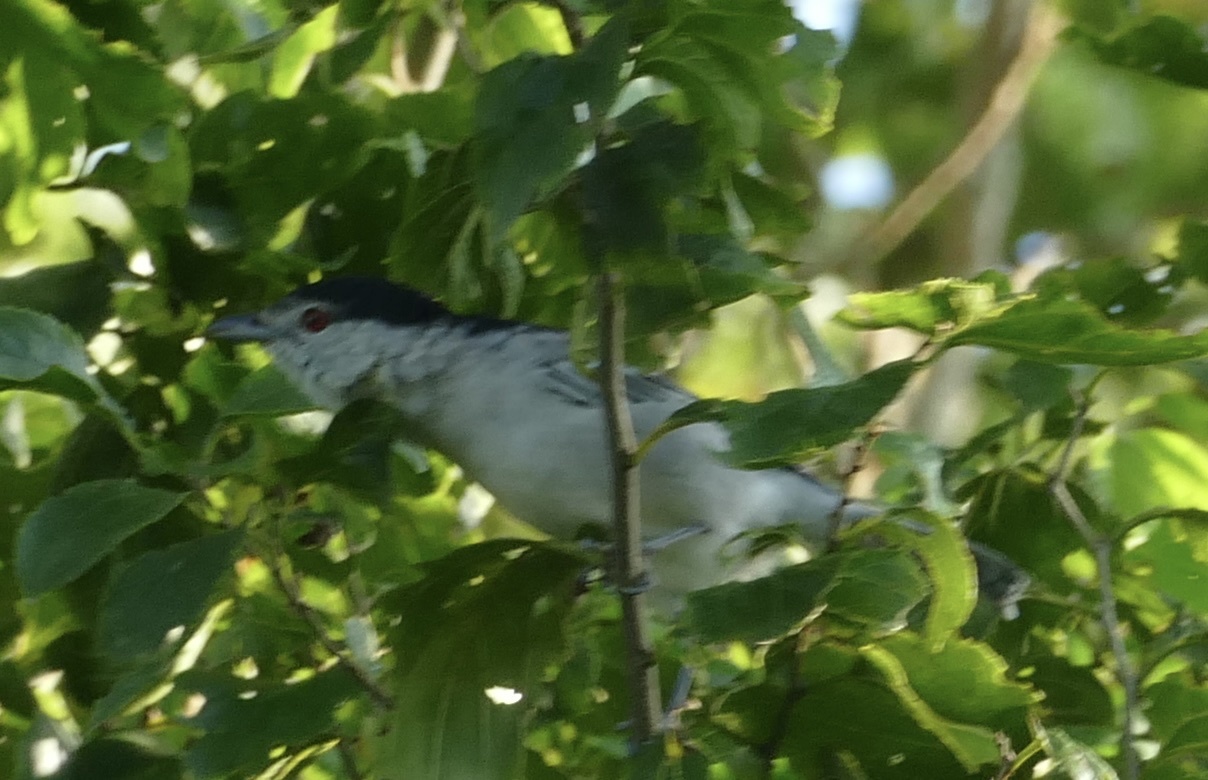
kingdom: Animalia
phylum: Chordata
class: Aves
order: Passeriformes
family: Malaconotidae
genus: Dryoscopus
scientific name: Dryoscopus cubla
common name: Black-backed puffback
